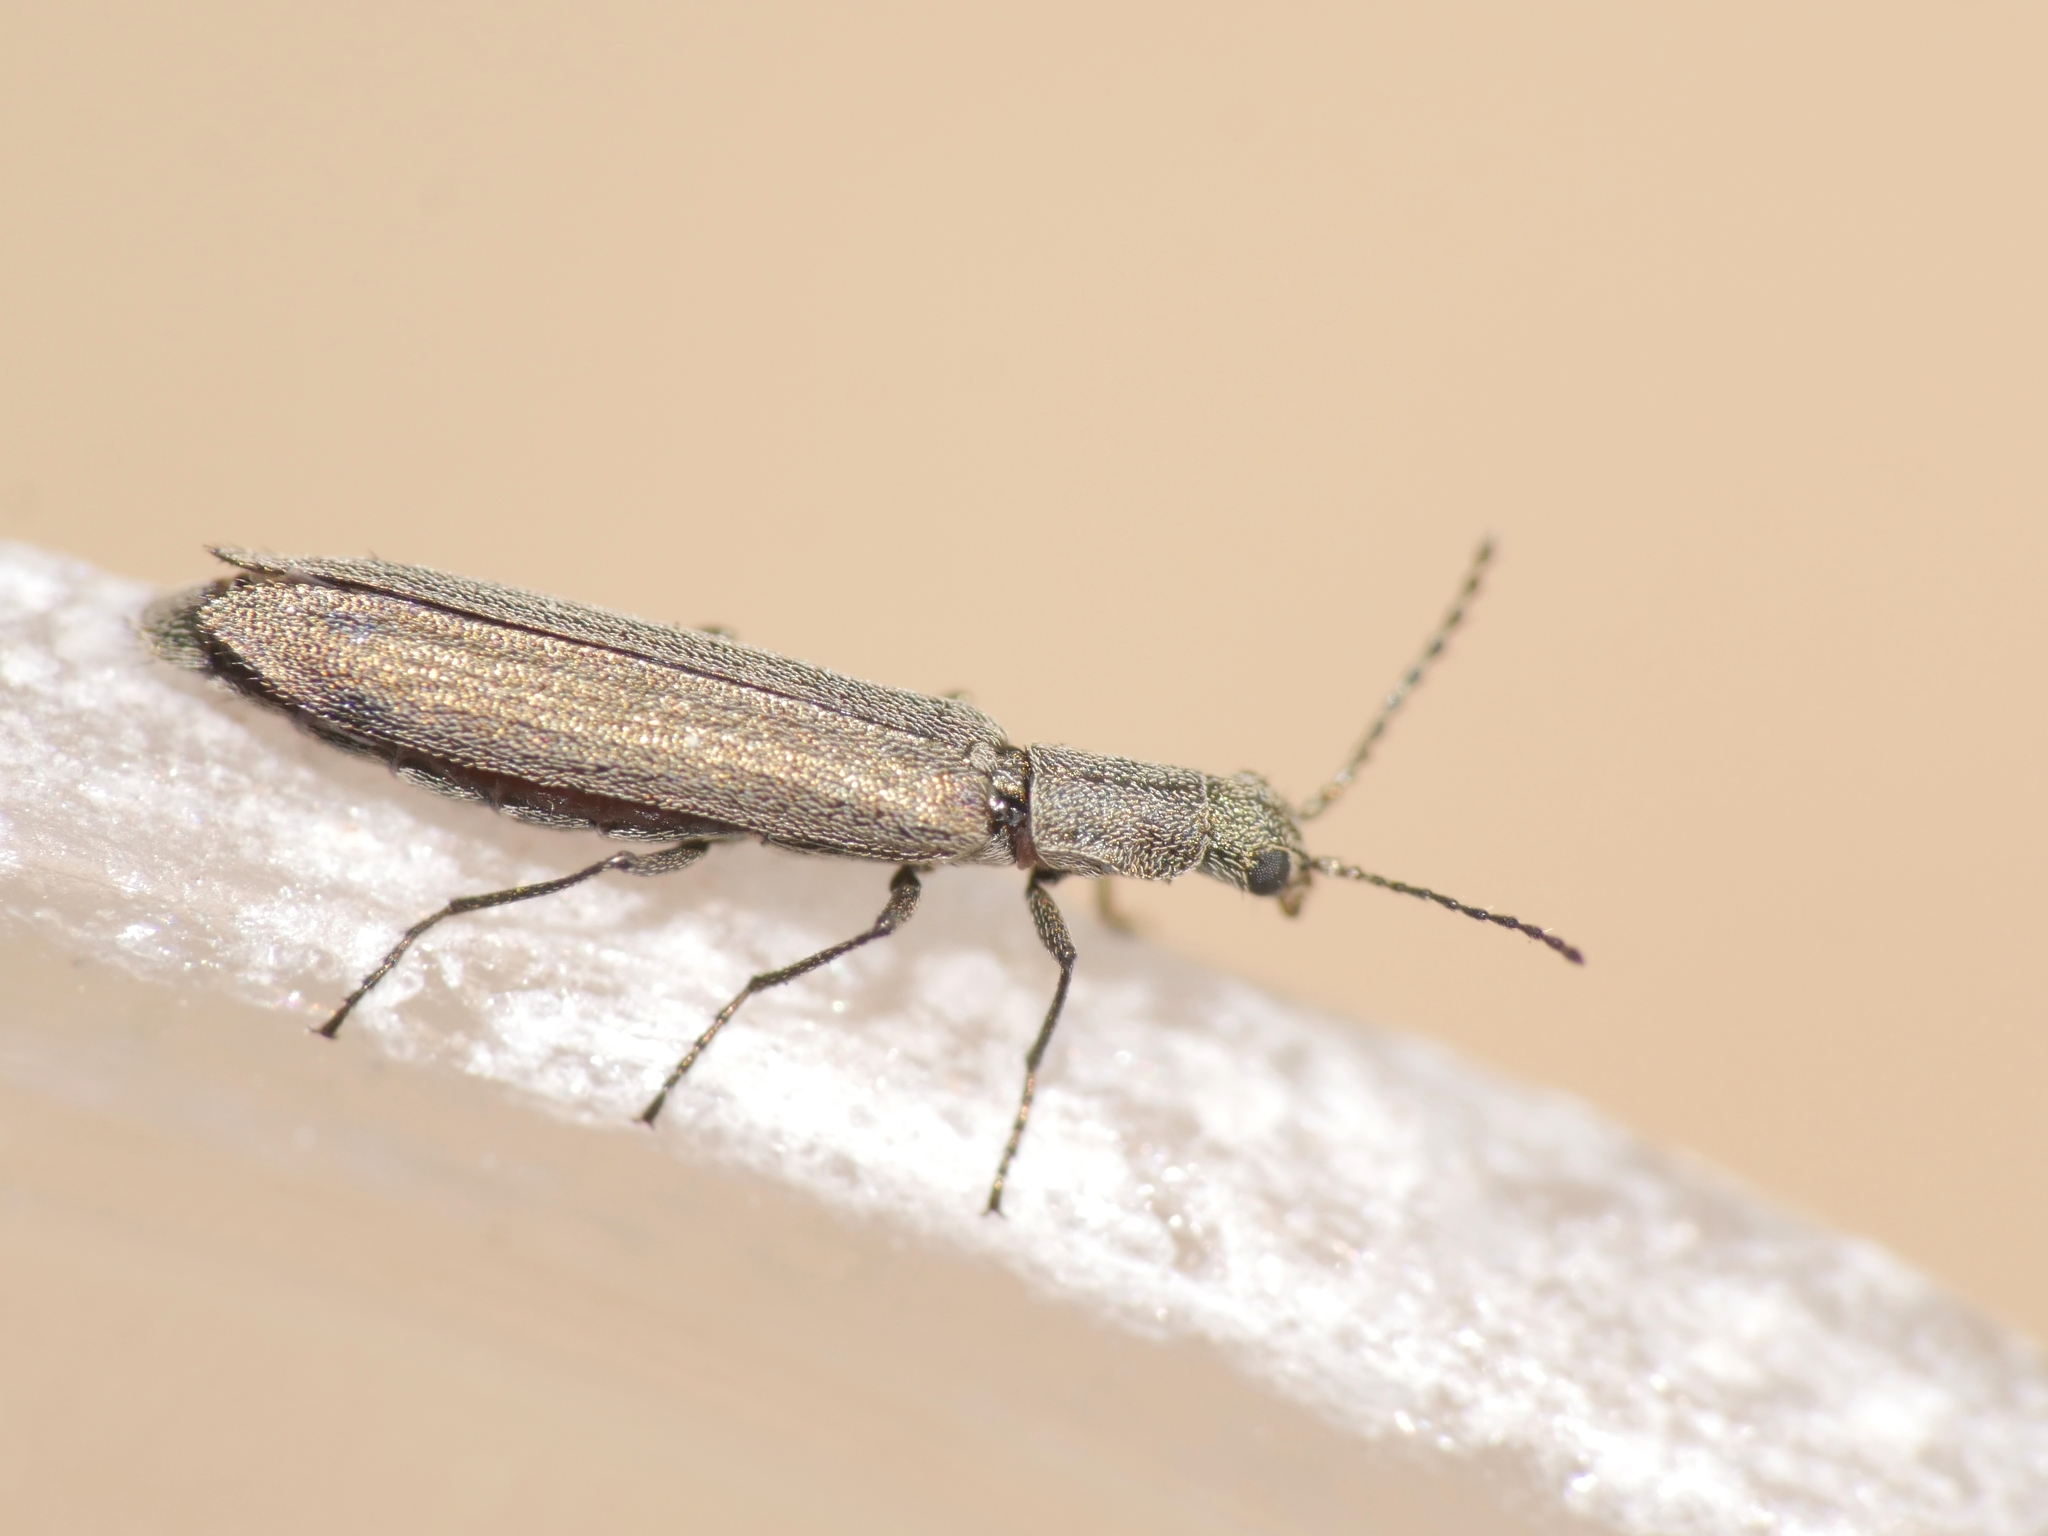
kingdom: Animalia
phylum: Arthropoda
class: Insecta
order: Coleoptera
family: Melyridae
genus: Dolichosoma
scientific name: Dolichosoma lineare
